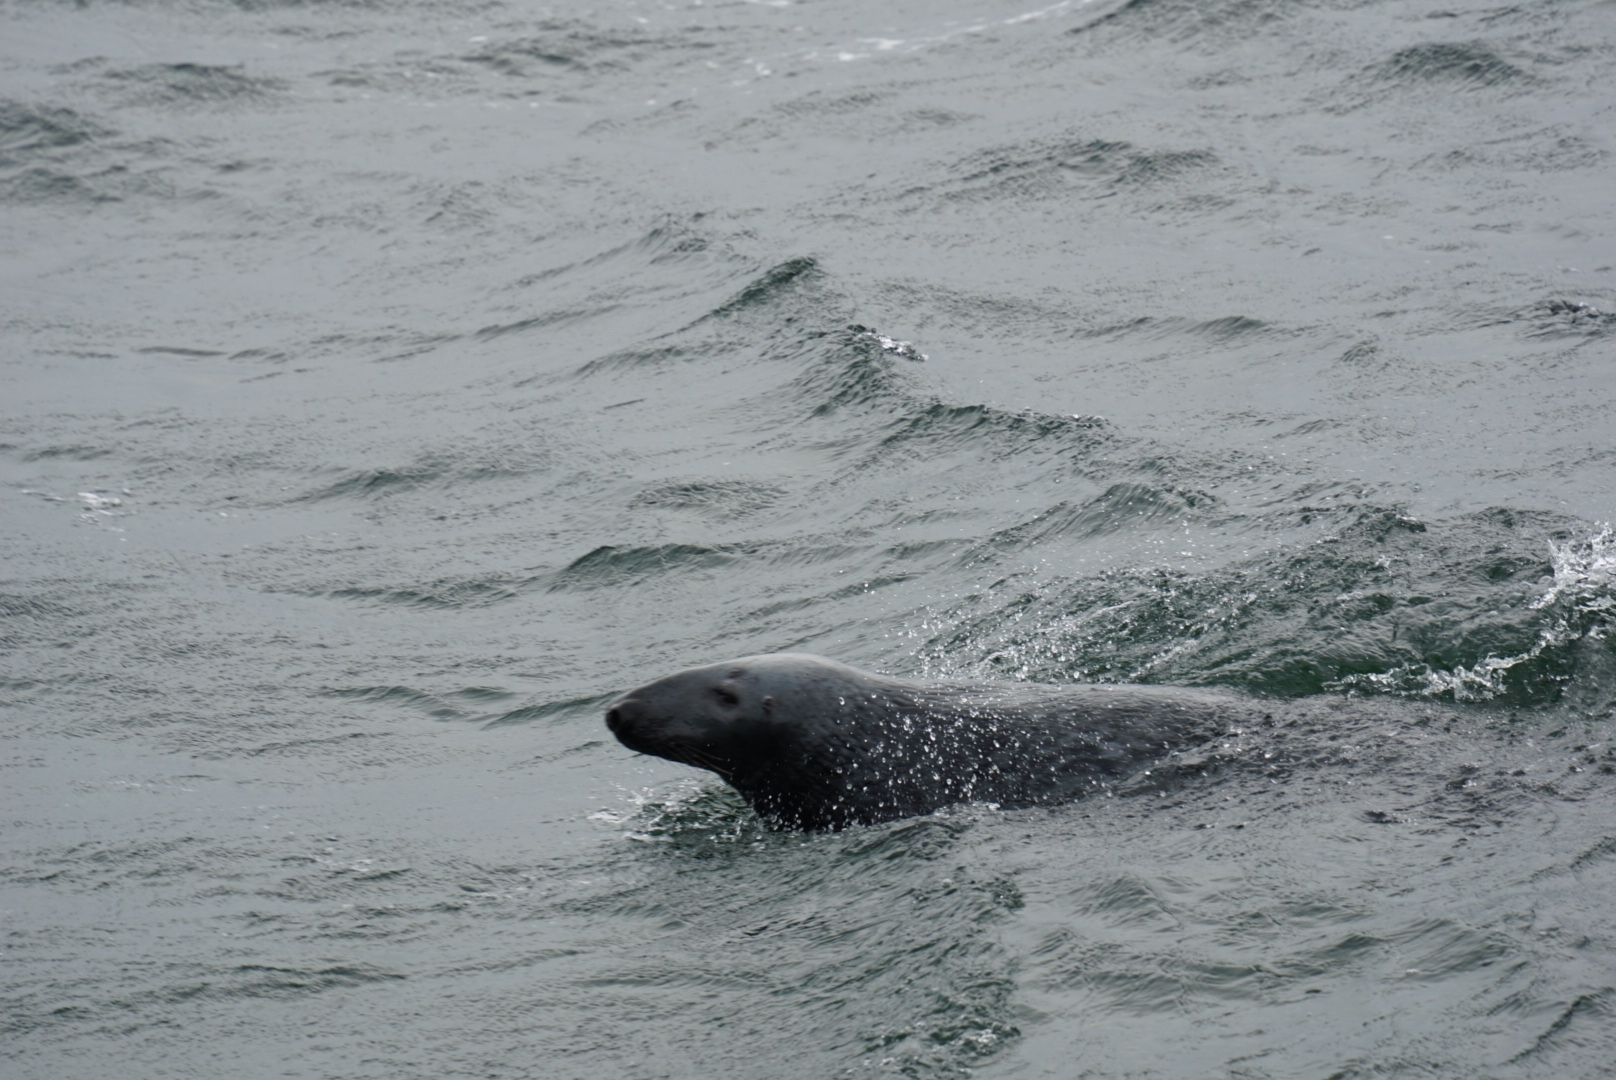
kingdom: Animalia
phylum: Chordata
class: Mammalia
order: Carnivora
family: Phocidae
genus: Halichoerus
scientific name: Halichoerus grypus
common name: Grey seal
